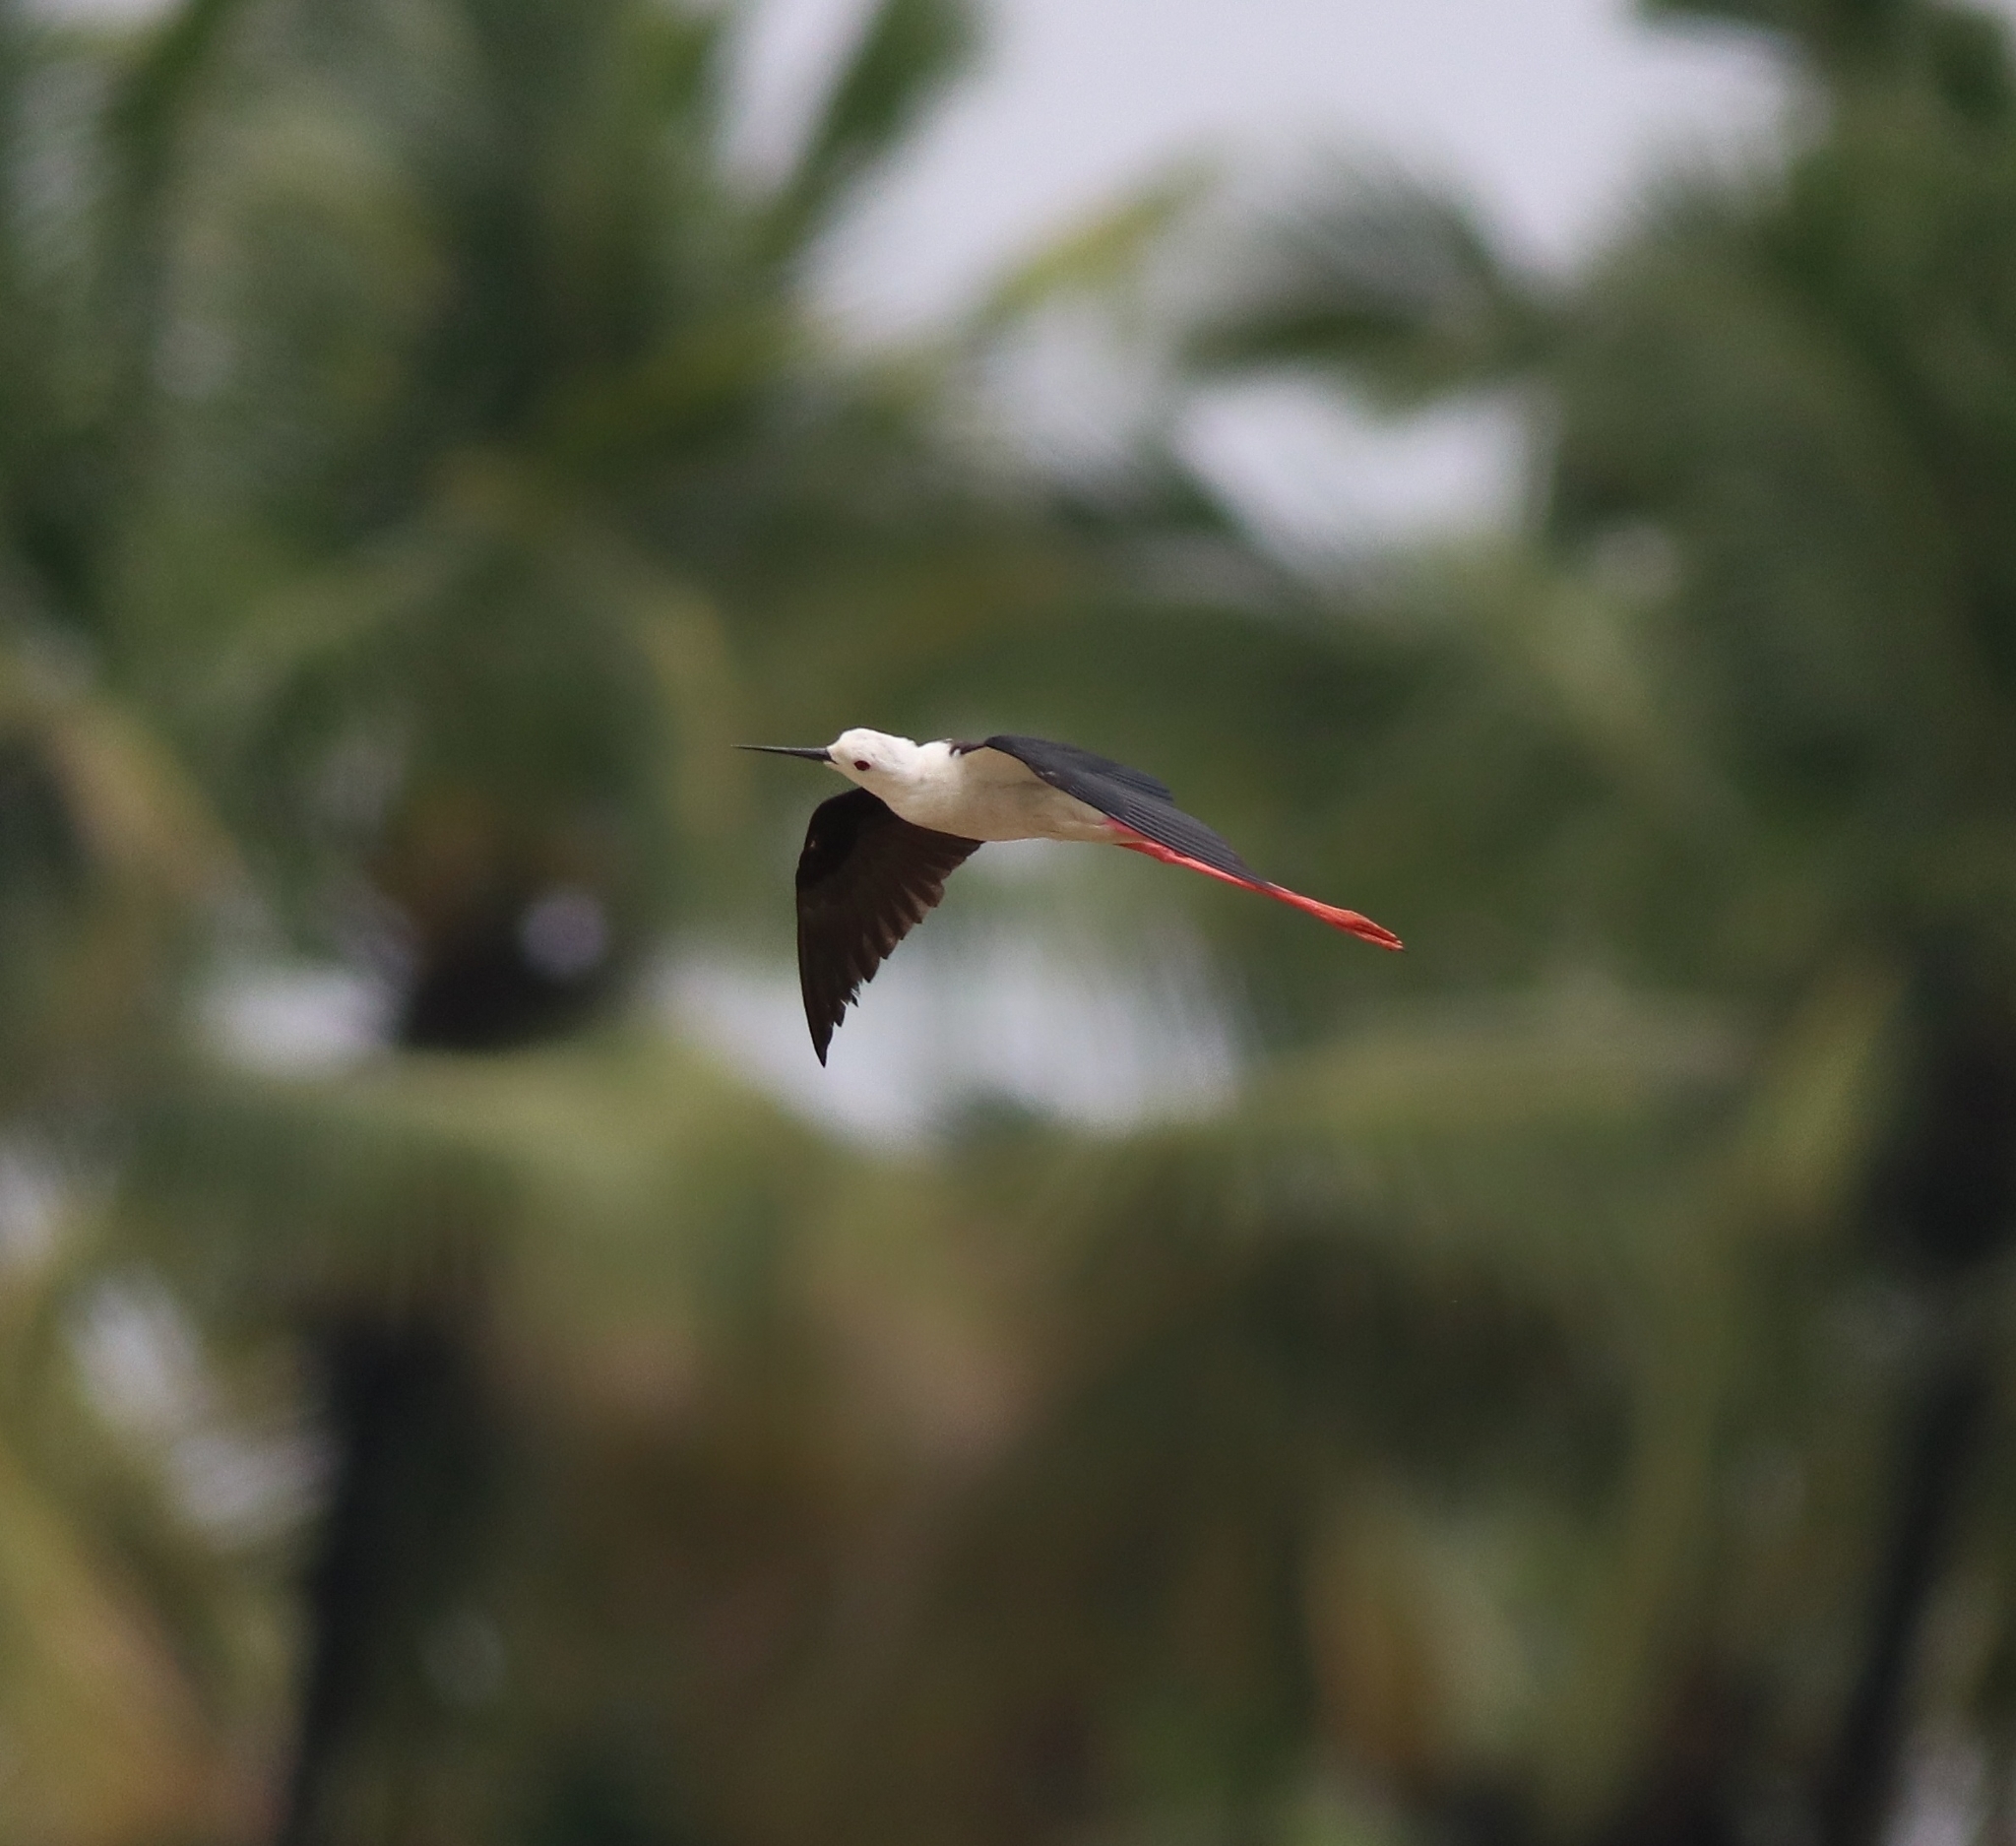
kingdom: Animalia
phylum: Chordata
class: Aves
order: Charadriiformes
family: Recurvirostridae
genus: Himantopus
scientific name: Himantopus himantopus
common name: Black-winged stilt
